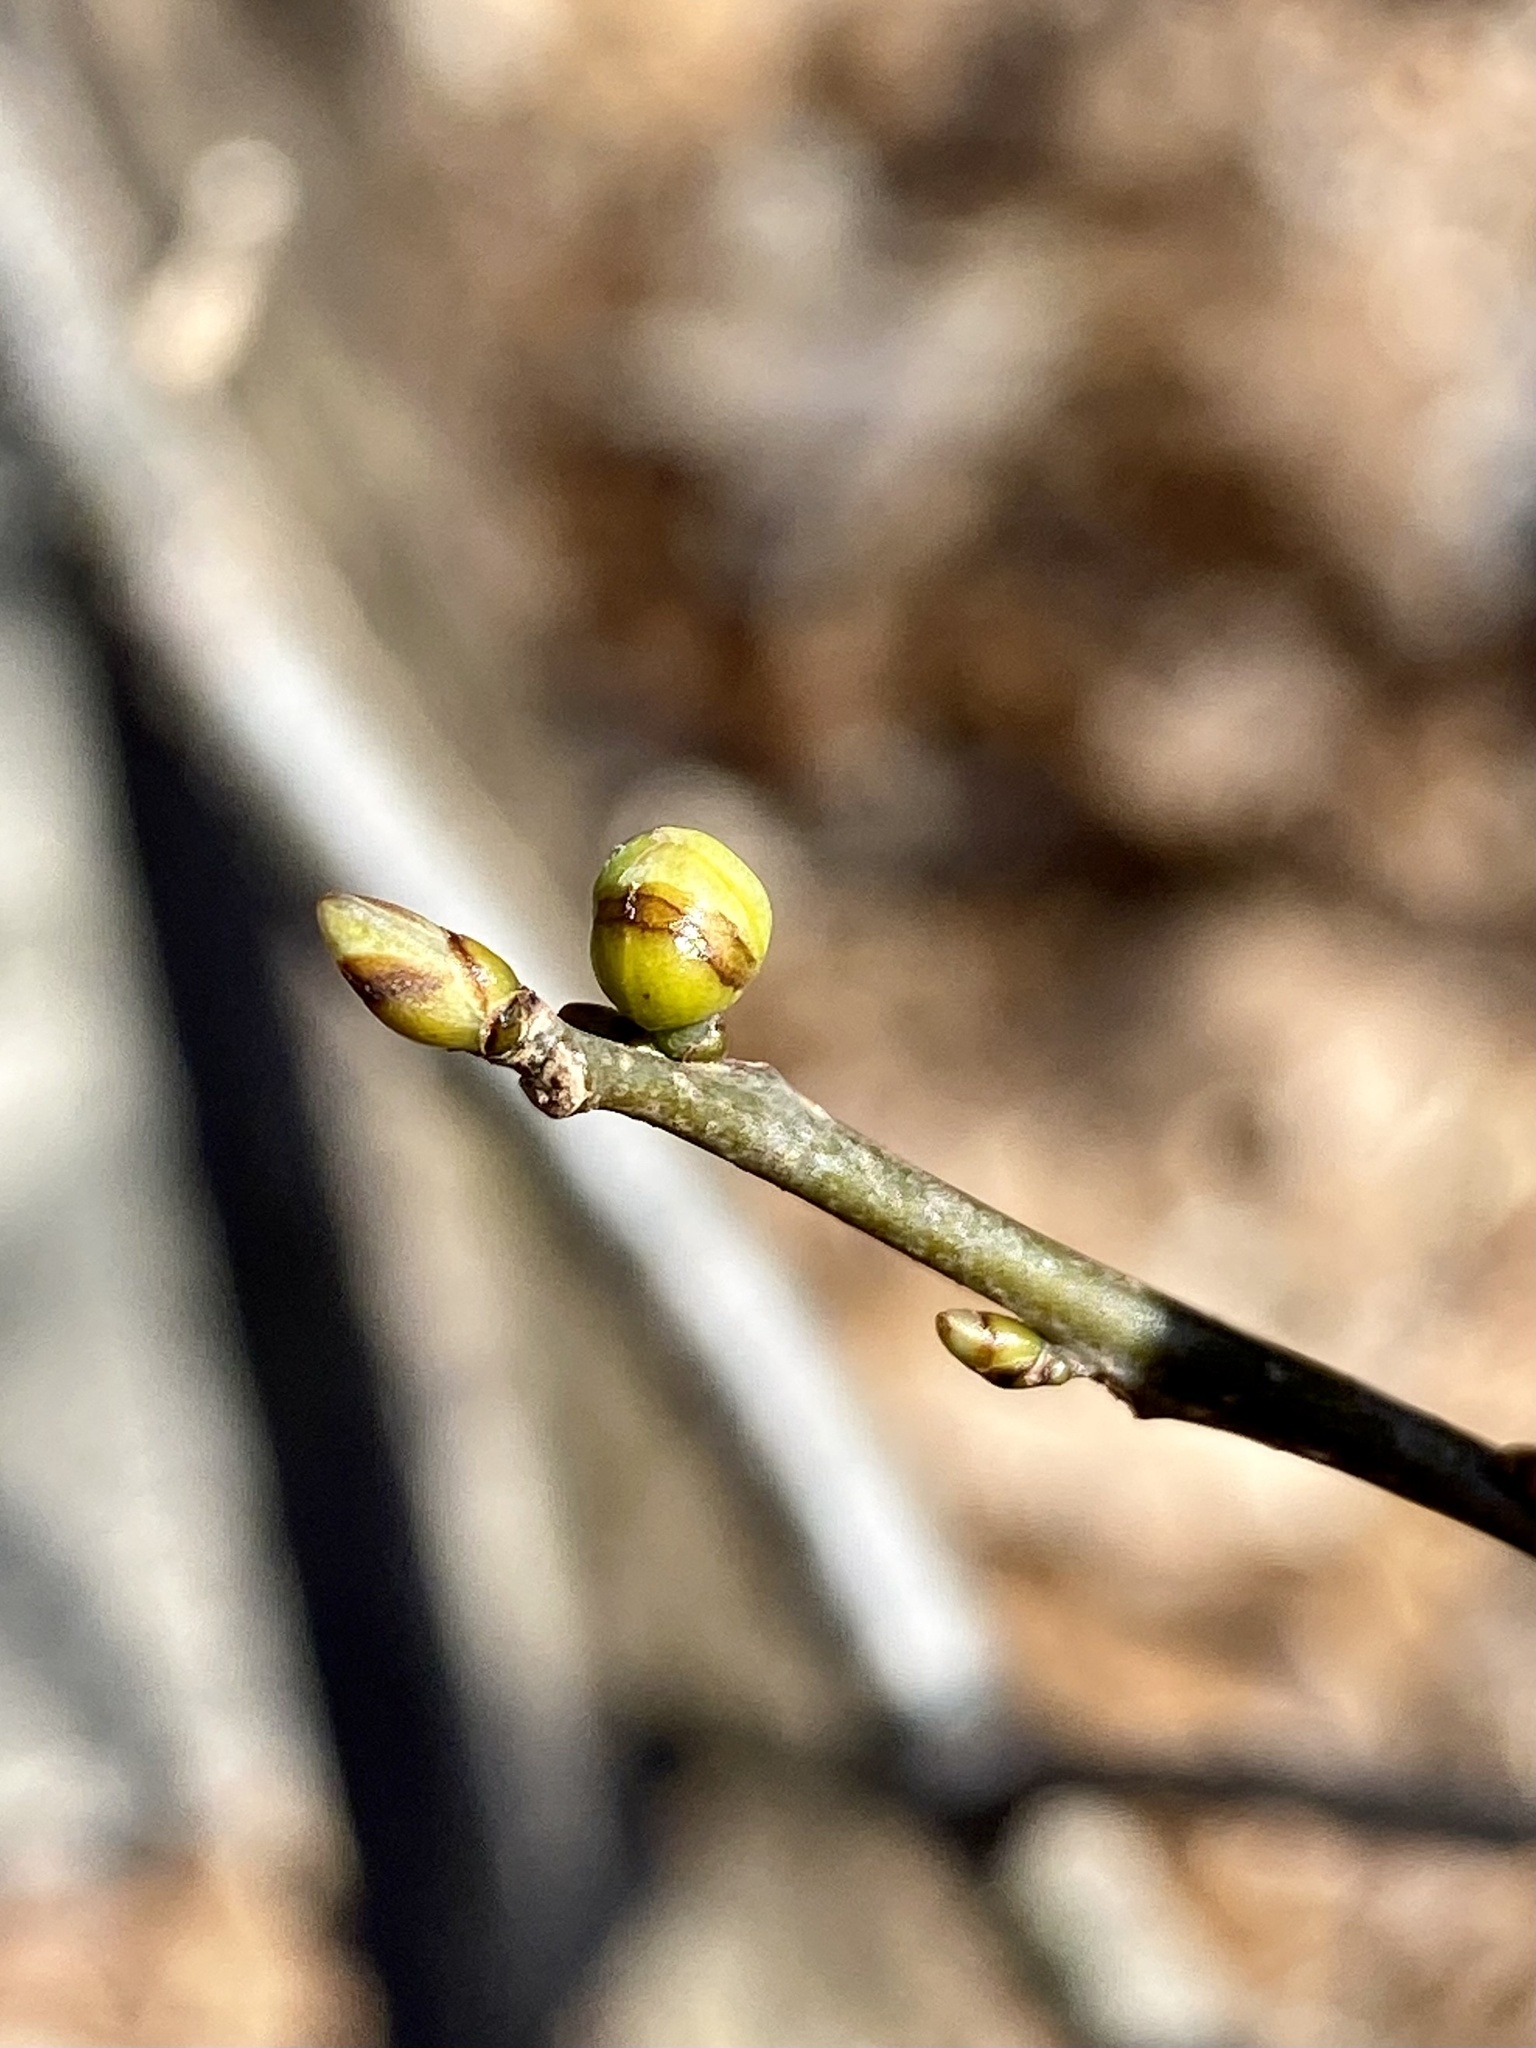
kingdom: Plantae
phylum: Tracheophyta
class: Magnoliopsida
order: Laurales
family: Lauraceae
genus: Lindera
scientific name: Lindera benzoin
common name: Spicebush
